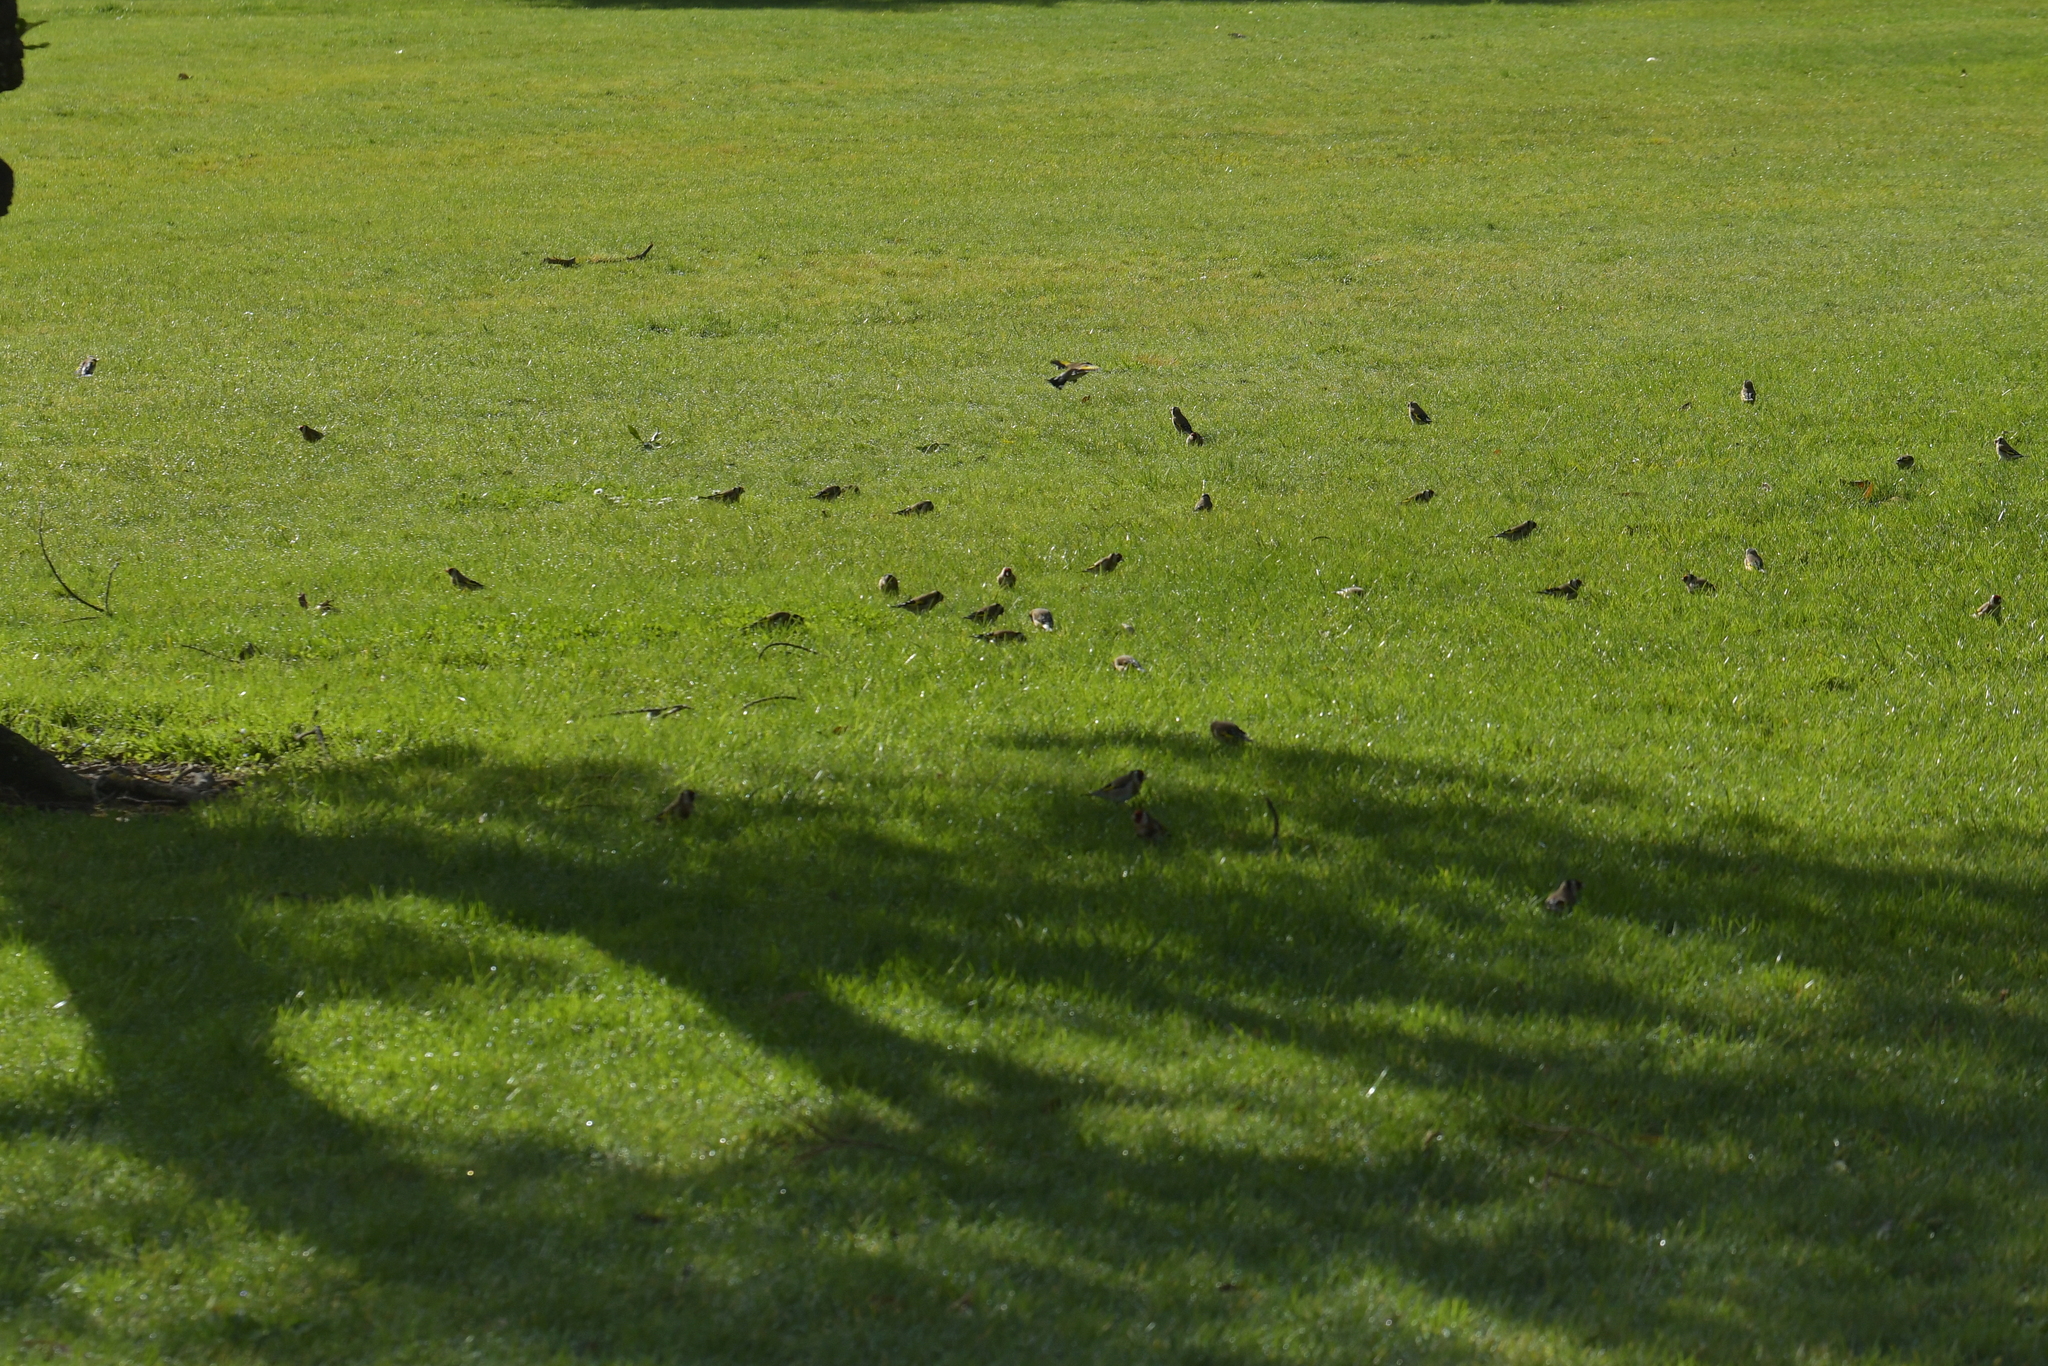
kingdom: Animalia
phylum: Chordata
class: Aves
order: Passeriformes
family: Fringillidae
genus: Carduelis
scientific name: Carduelis carduelis
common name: European goldfinch
